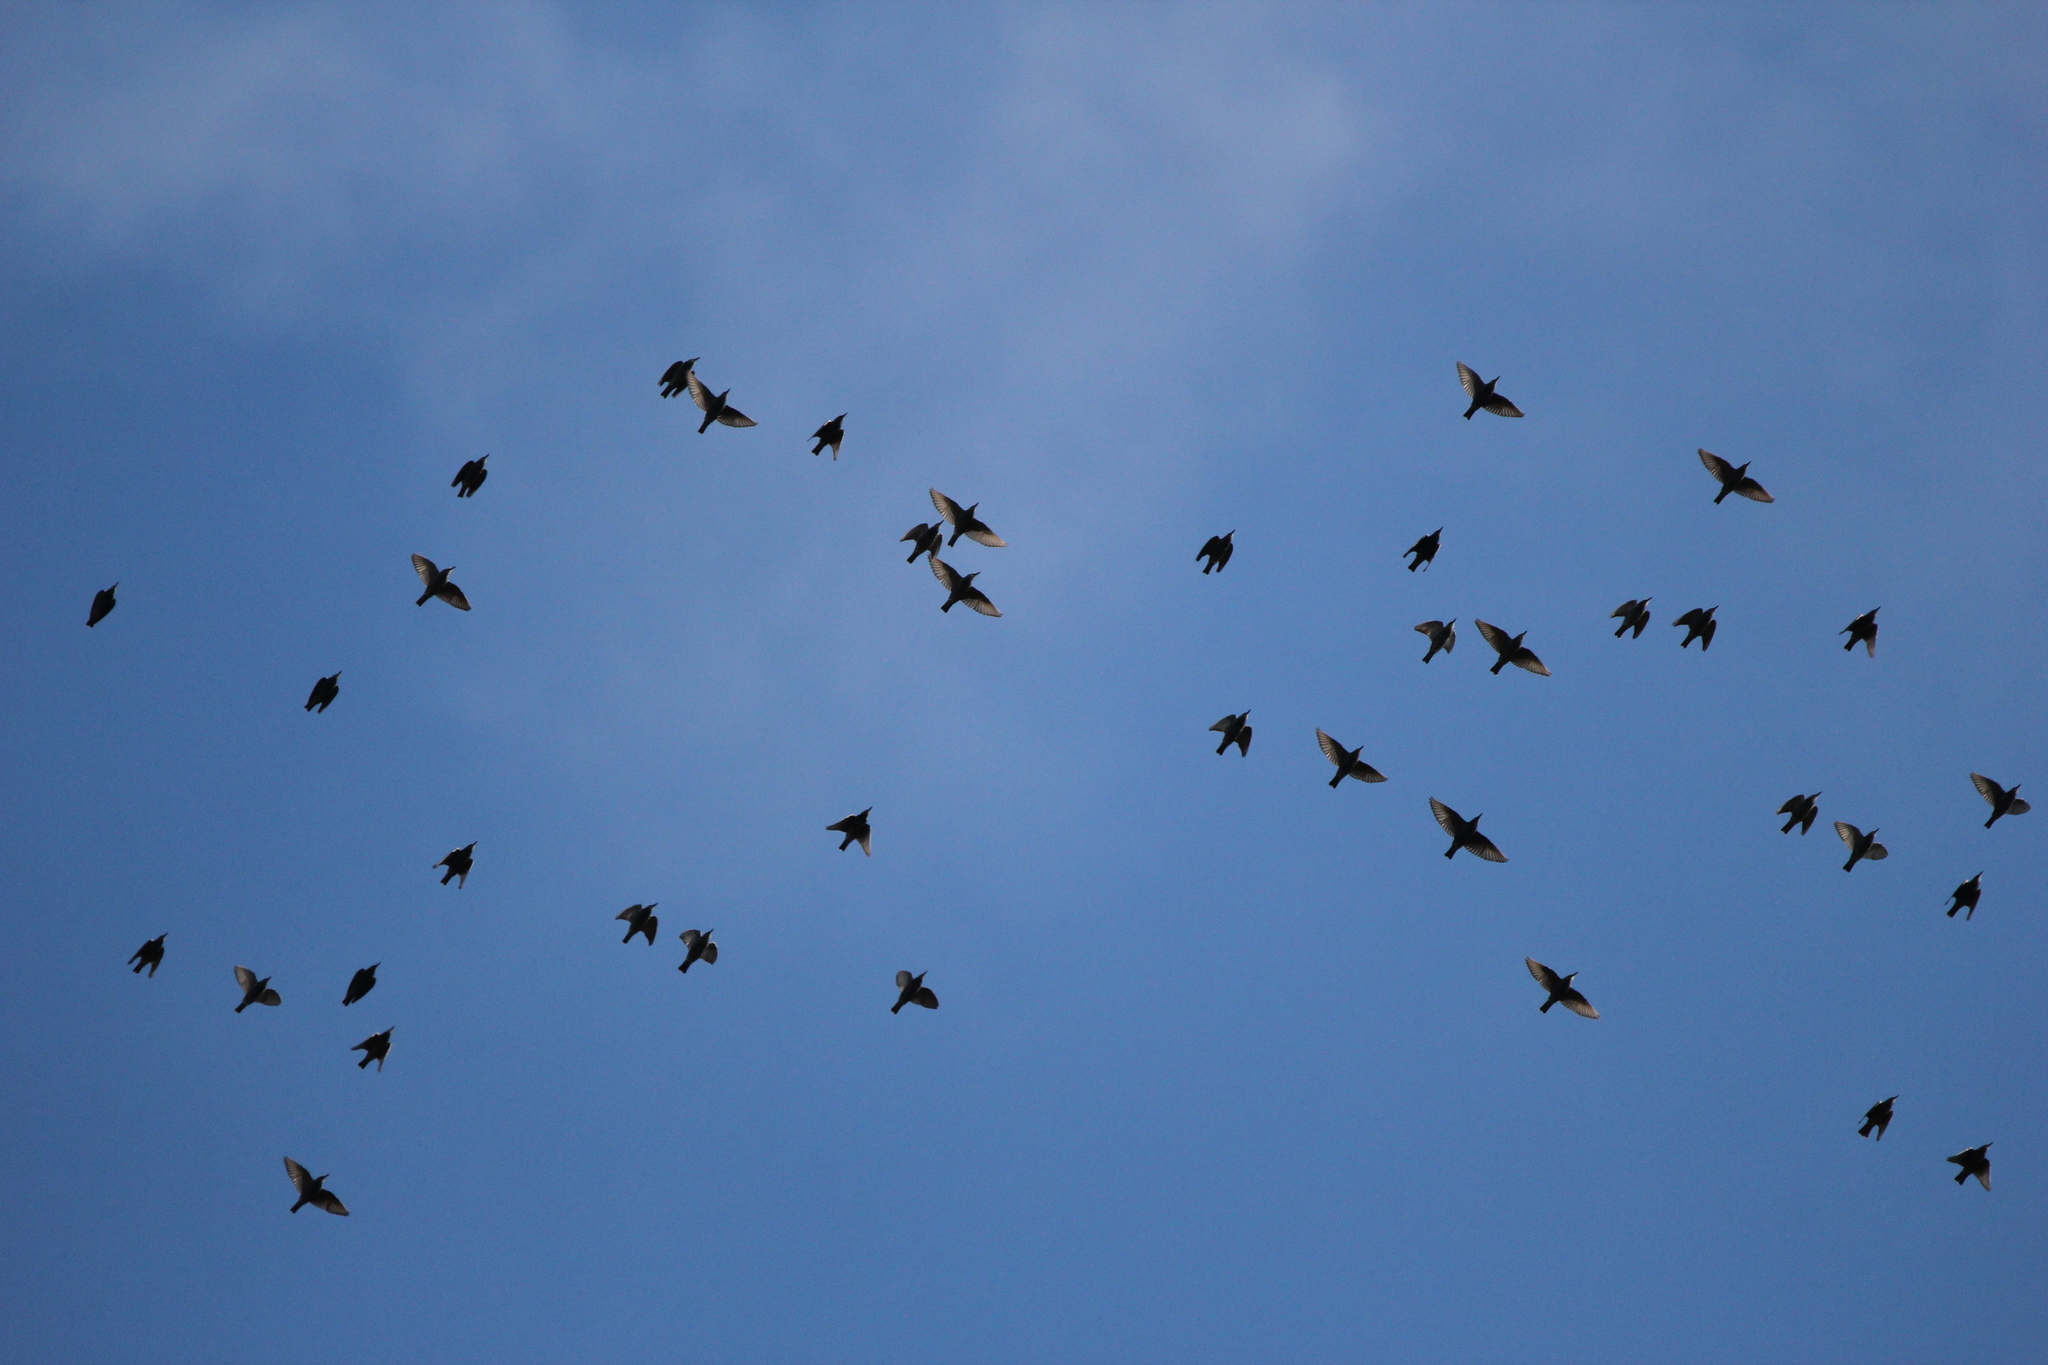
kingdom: Animalia
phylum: Chordata
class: Aves
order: Passeriformes
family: Sturnidae
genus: Sturnus
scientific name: Sturnus vulgaris
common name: Common starling
